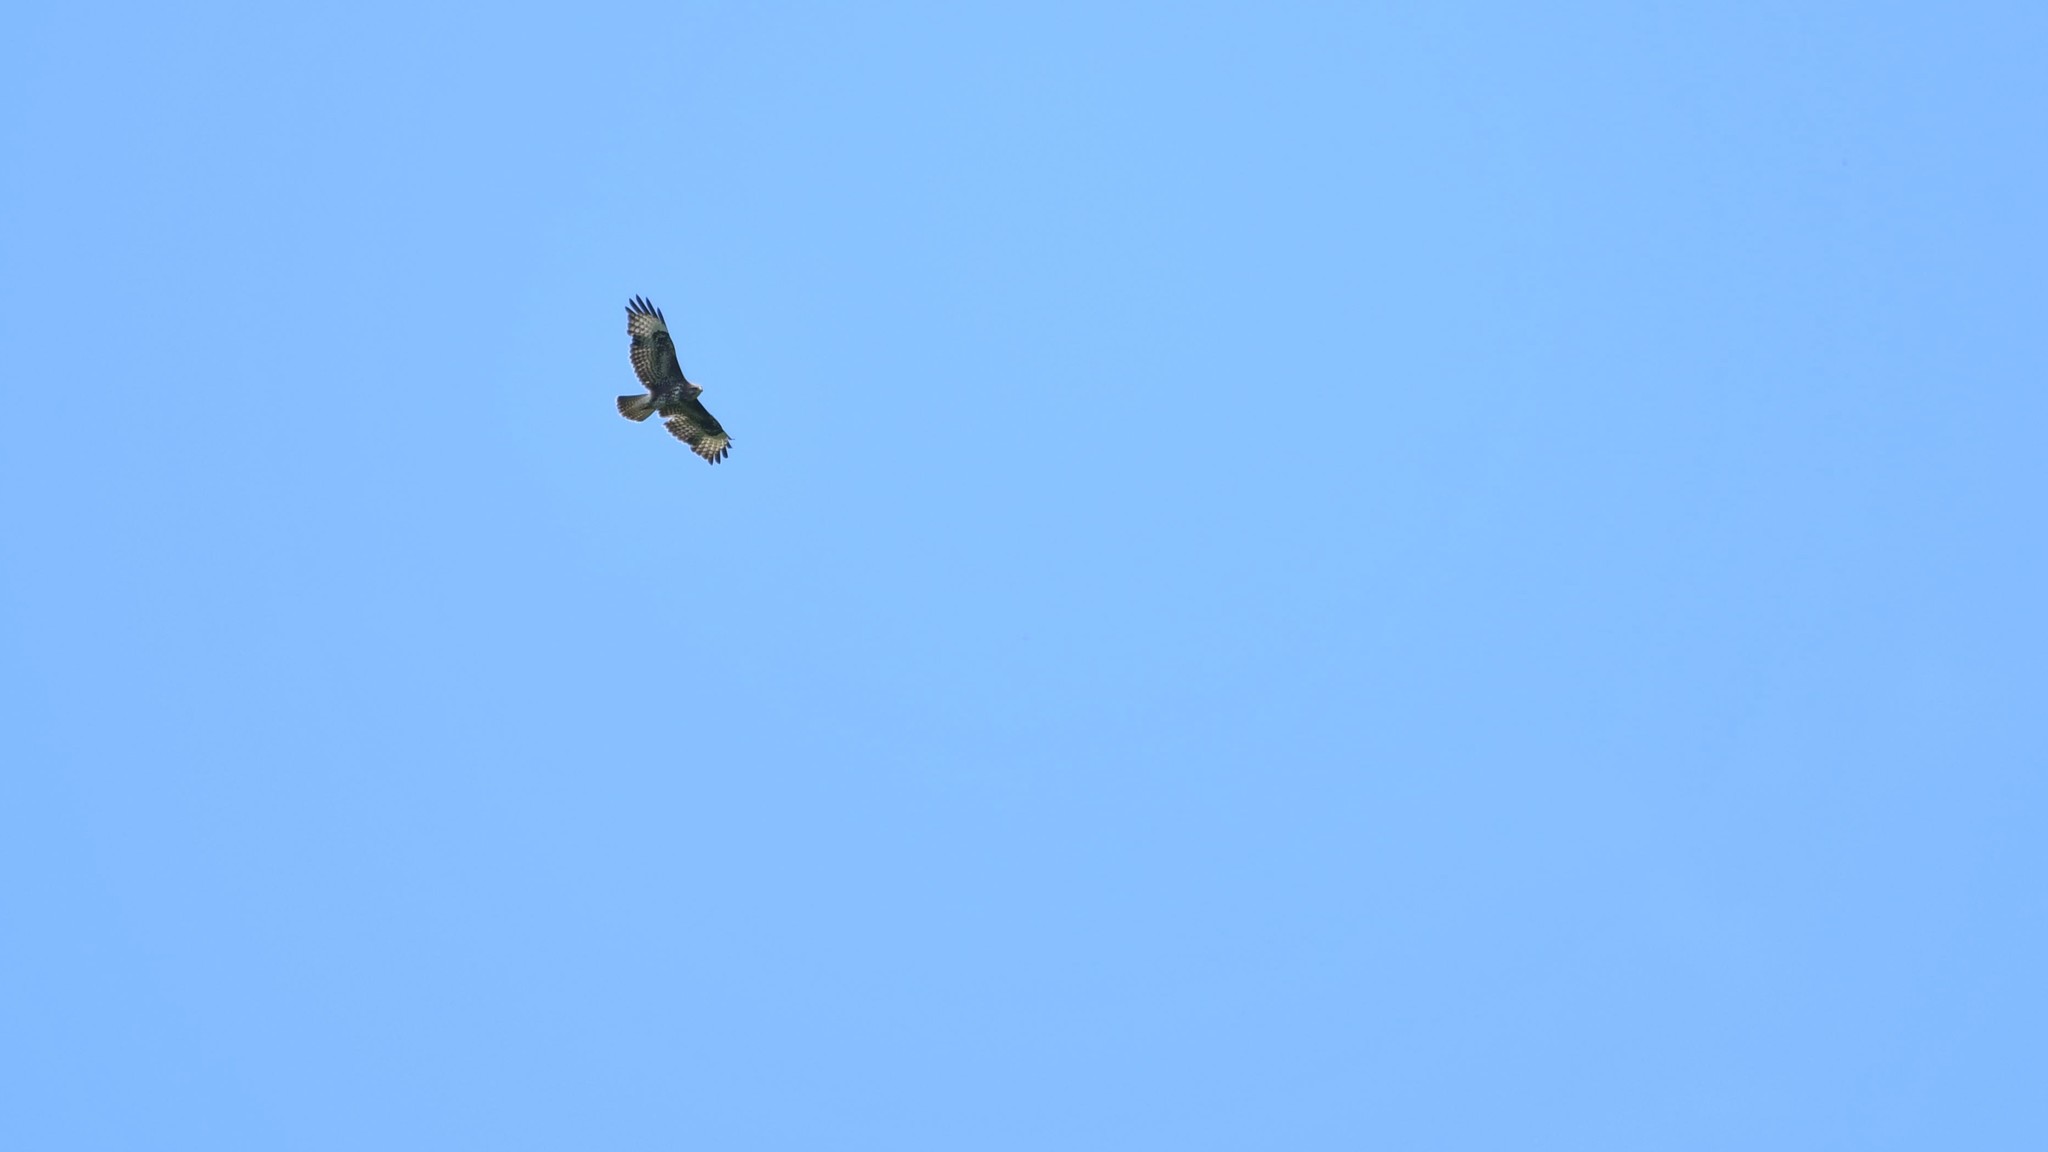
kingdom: Animalia
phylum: Chordata
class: Aves
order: Accipitriformes
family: Accipitridae
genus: Buteo
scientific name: Buteo buteo
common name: Common buzzard
